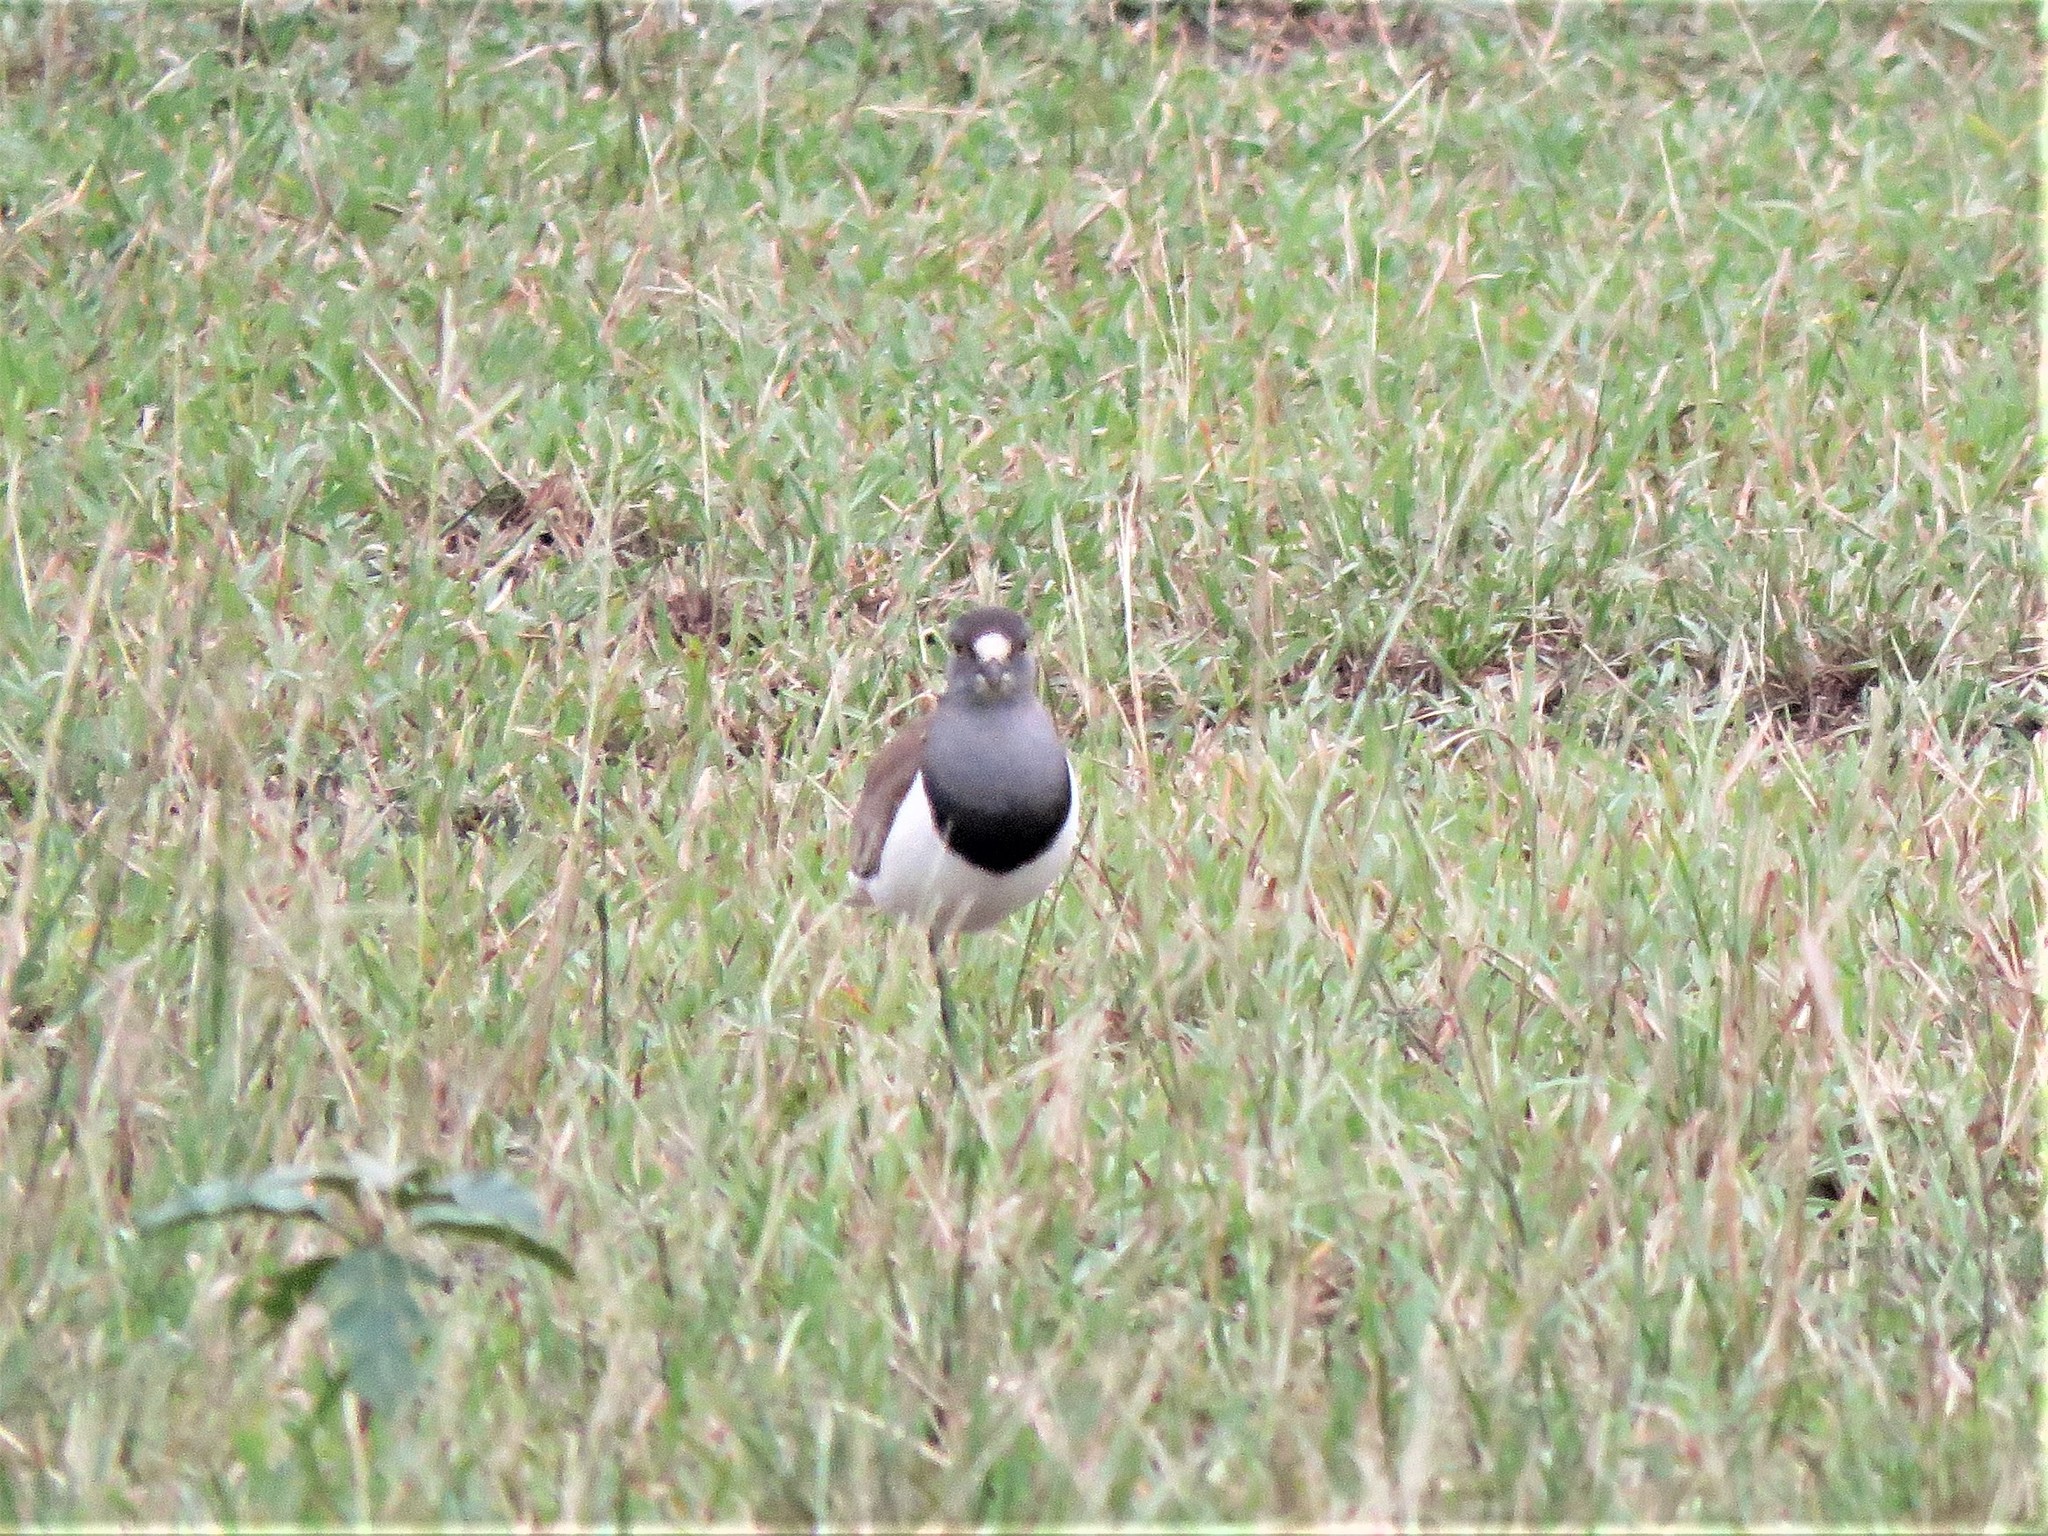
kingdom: Animalia
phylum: Chordata
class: Aves
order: Charadriiformes
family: Charadriidae
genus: Vanellus
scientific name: Vanellus lugubris
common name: Senegal lapwing
